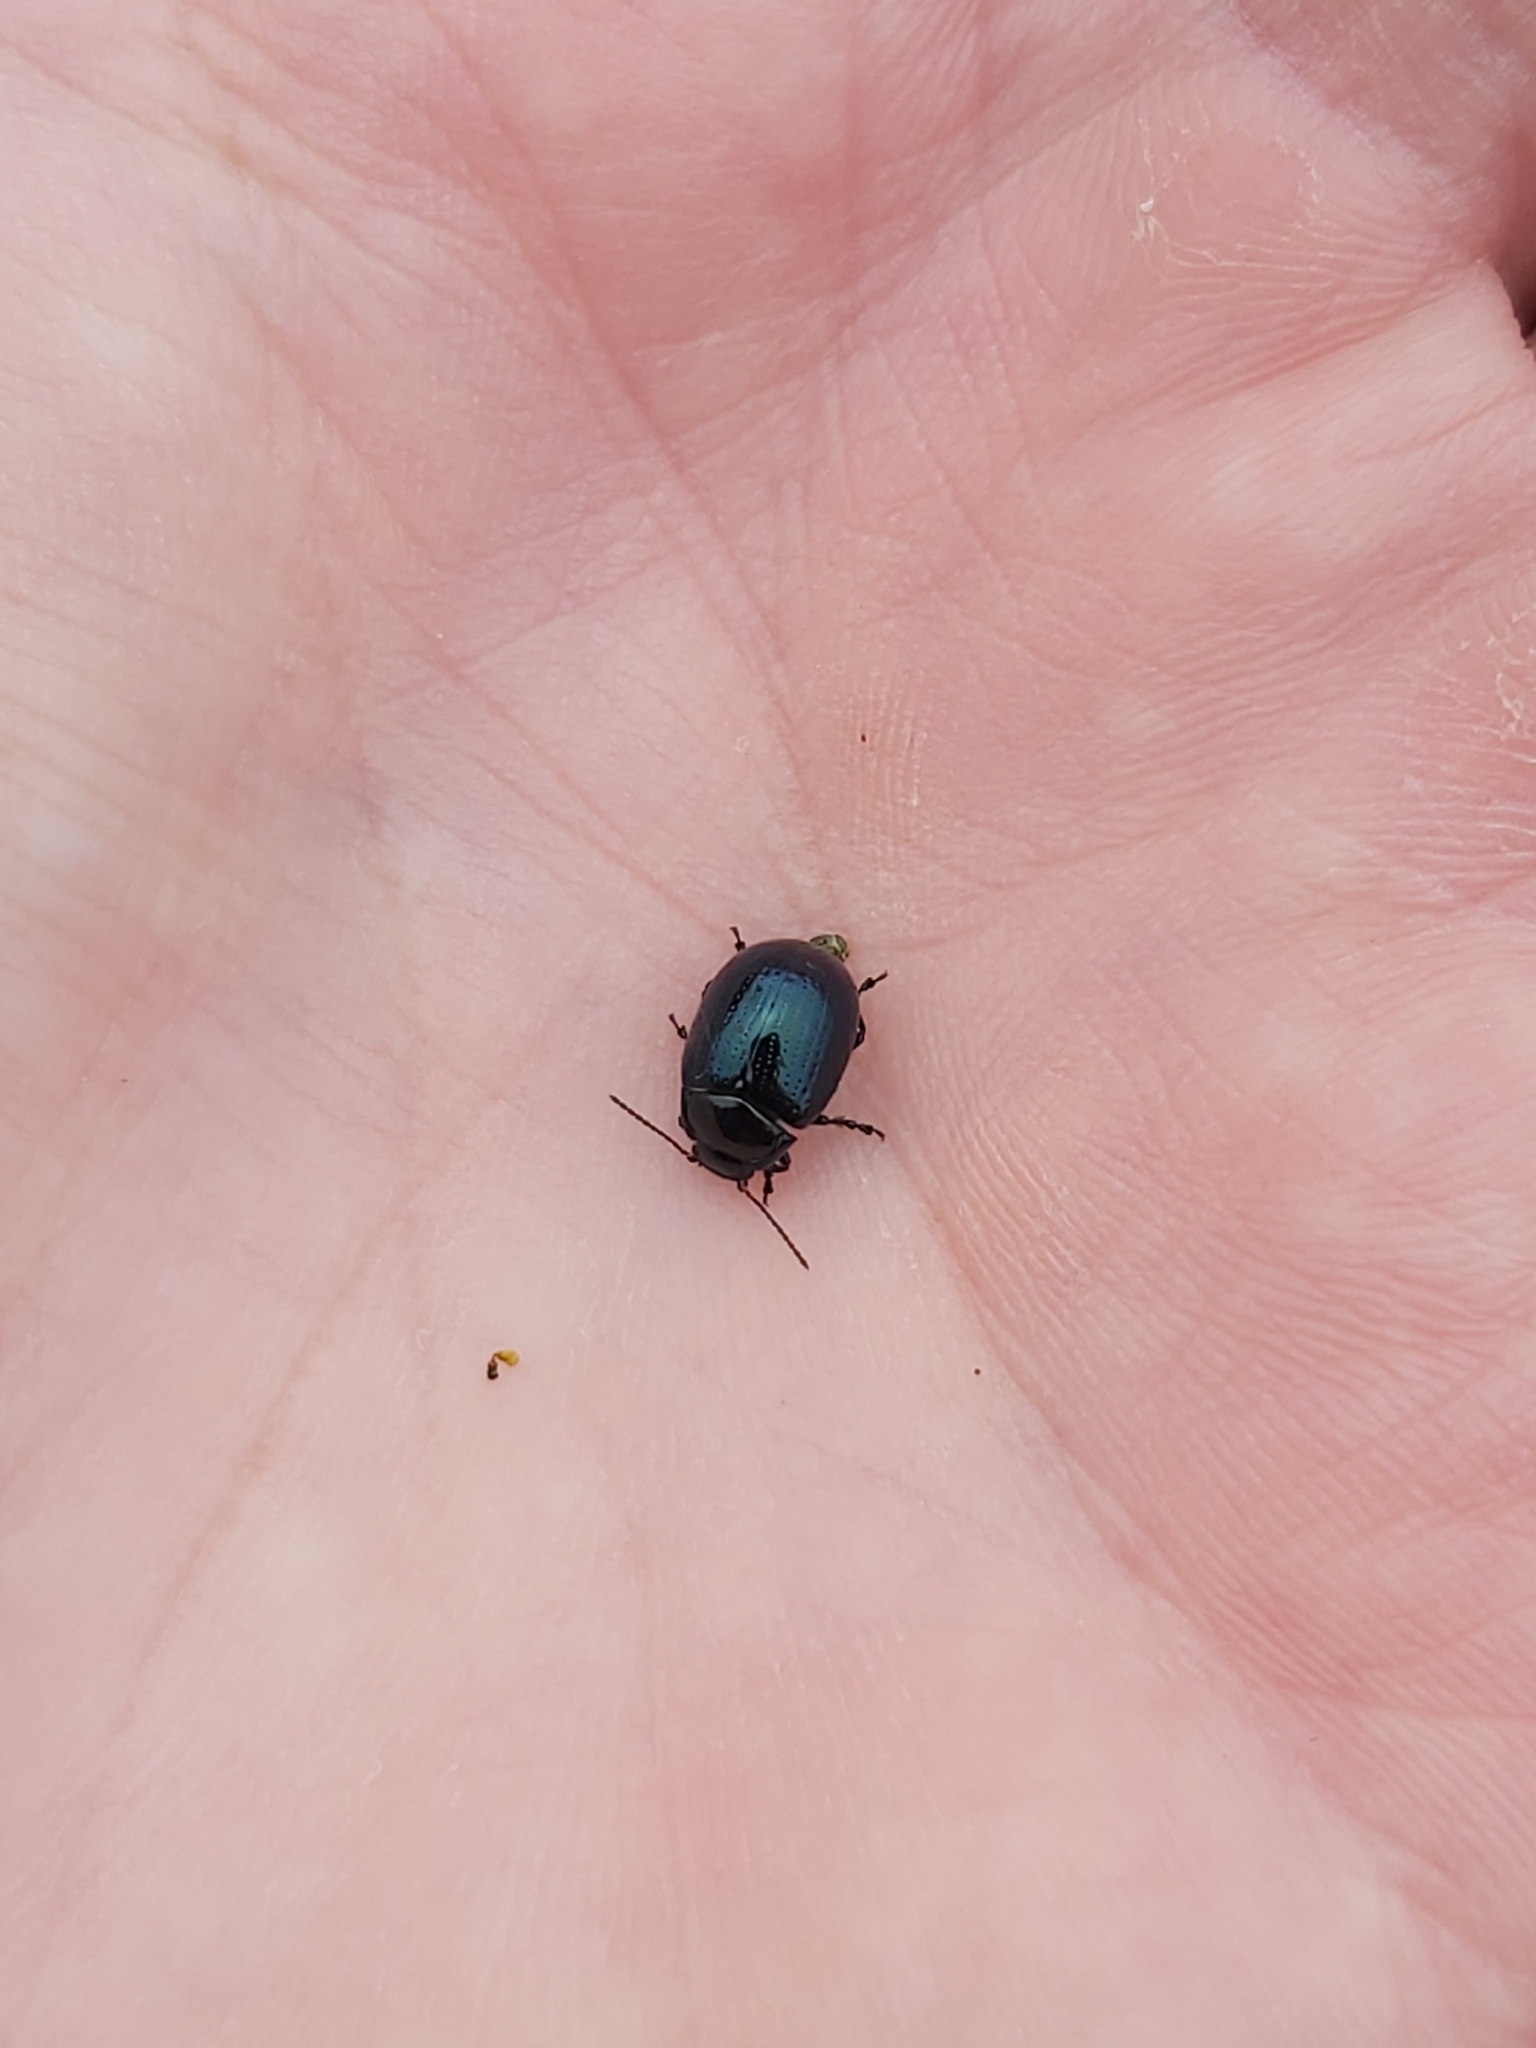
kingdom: Animalia
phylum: Arthropoda
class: Insecta
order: Coleoptera
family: Chrysomelidae
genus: Chrysolina
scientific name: Chrysolina oricalcia
